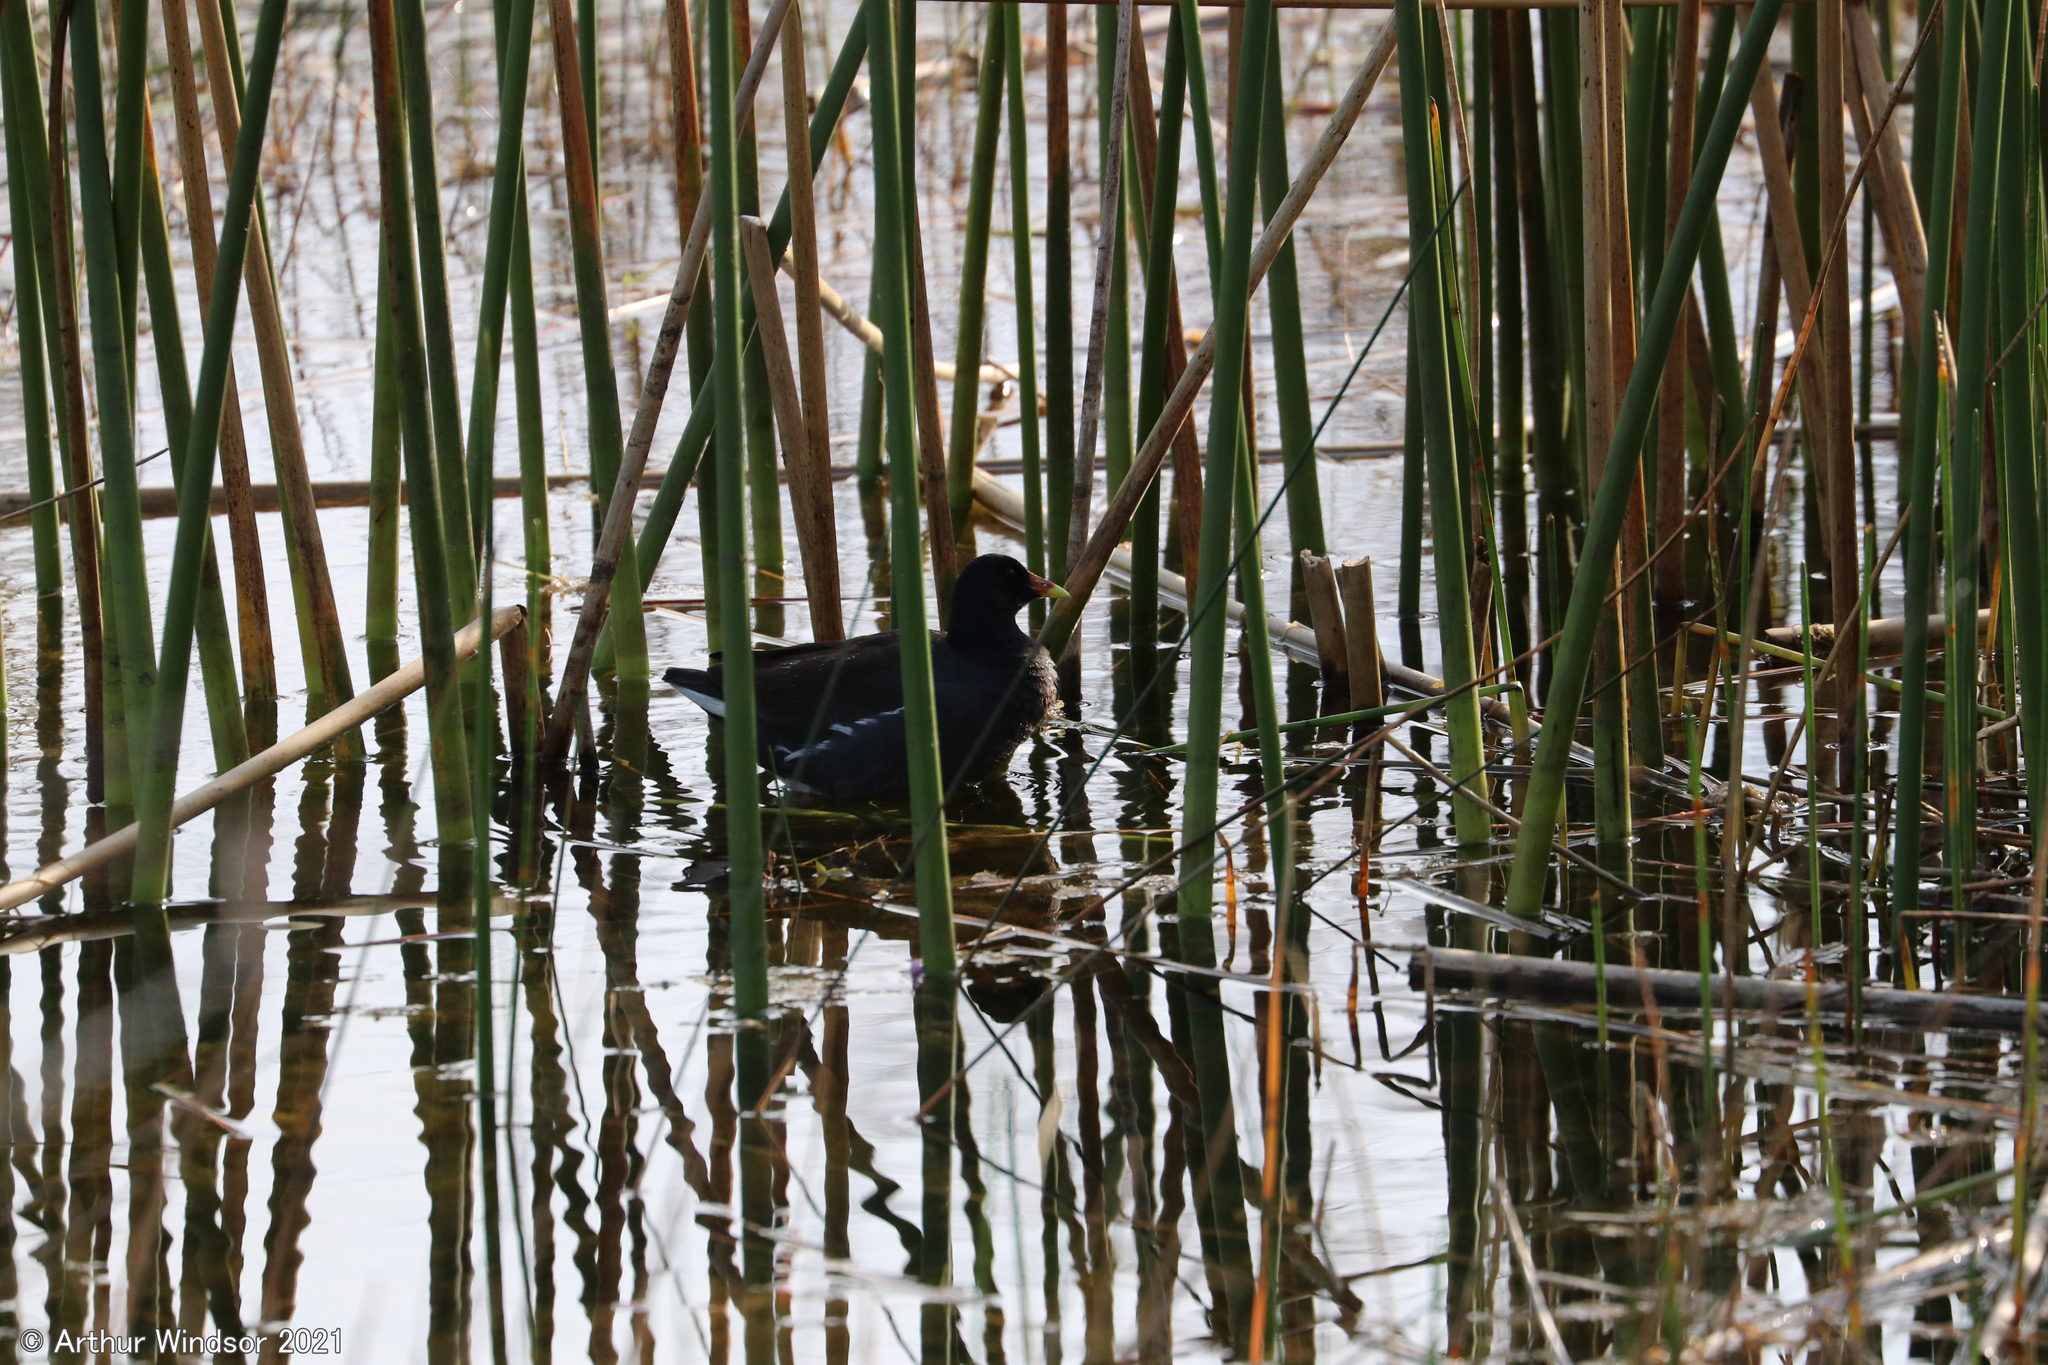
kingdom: Animalia
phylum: Chordata
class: Aves
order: Gruiformes
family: Rallidae
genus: Gallinula
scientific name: Gallinula chloropus
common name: Common moorhen
